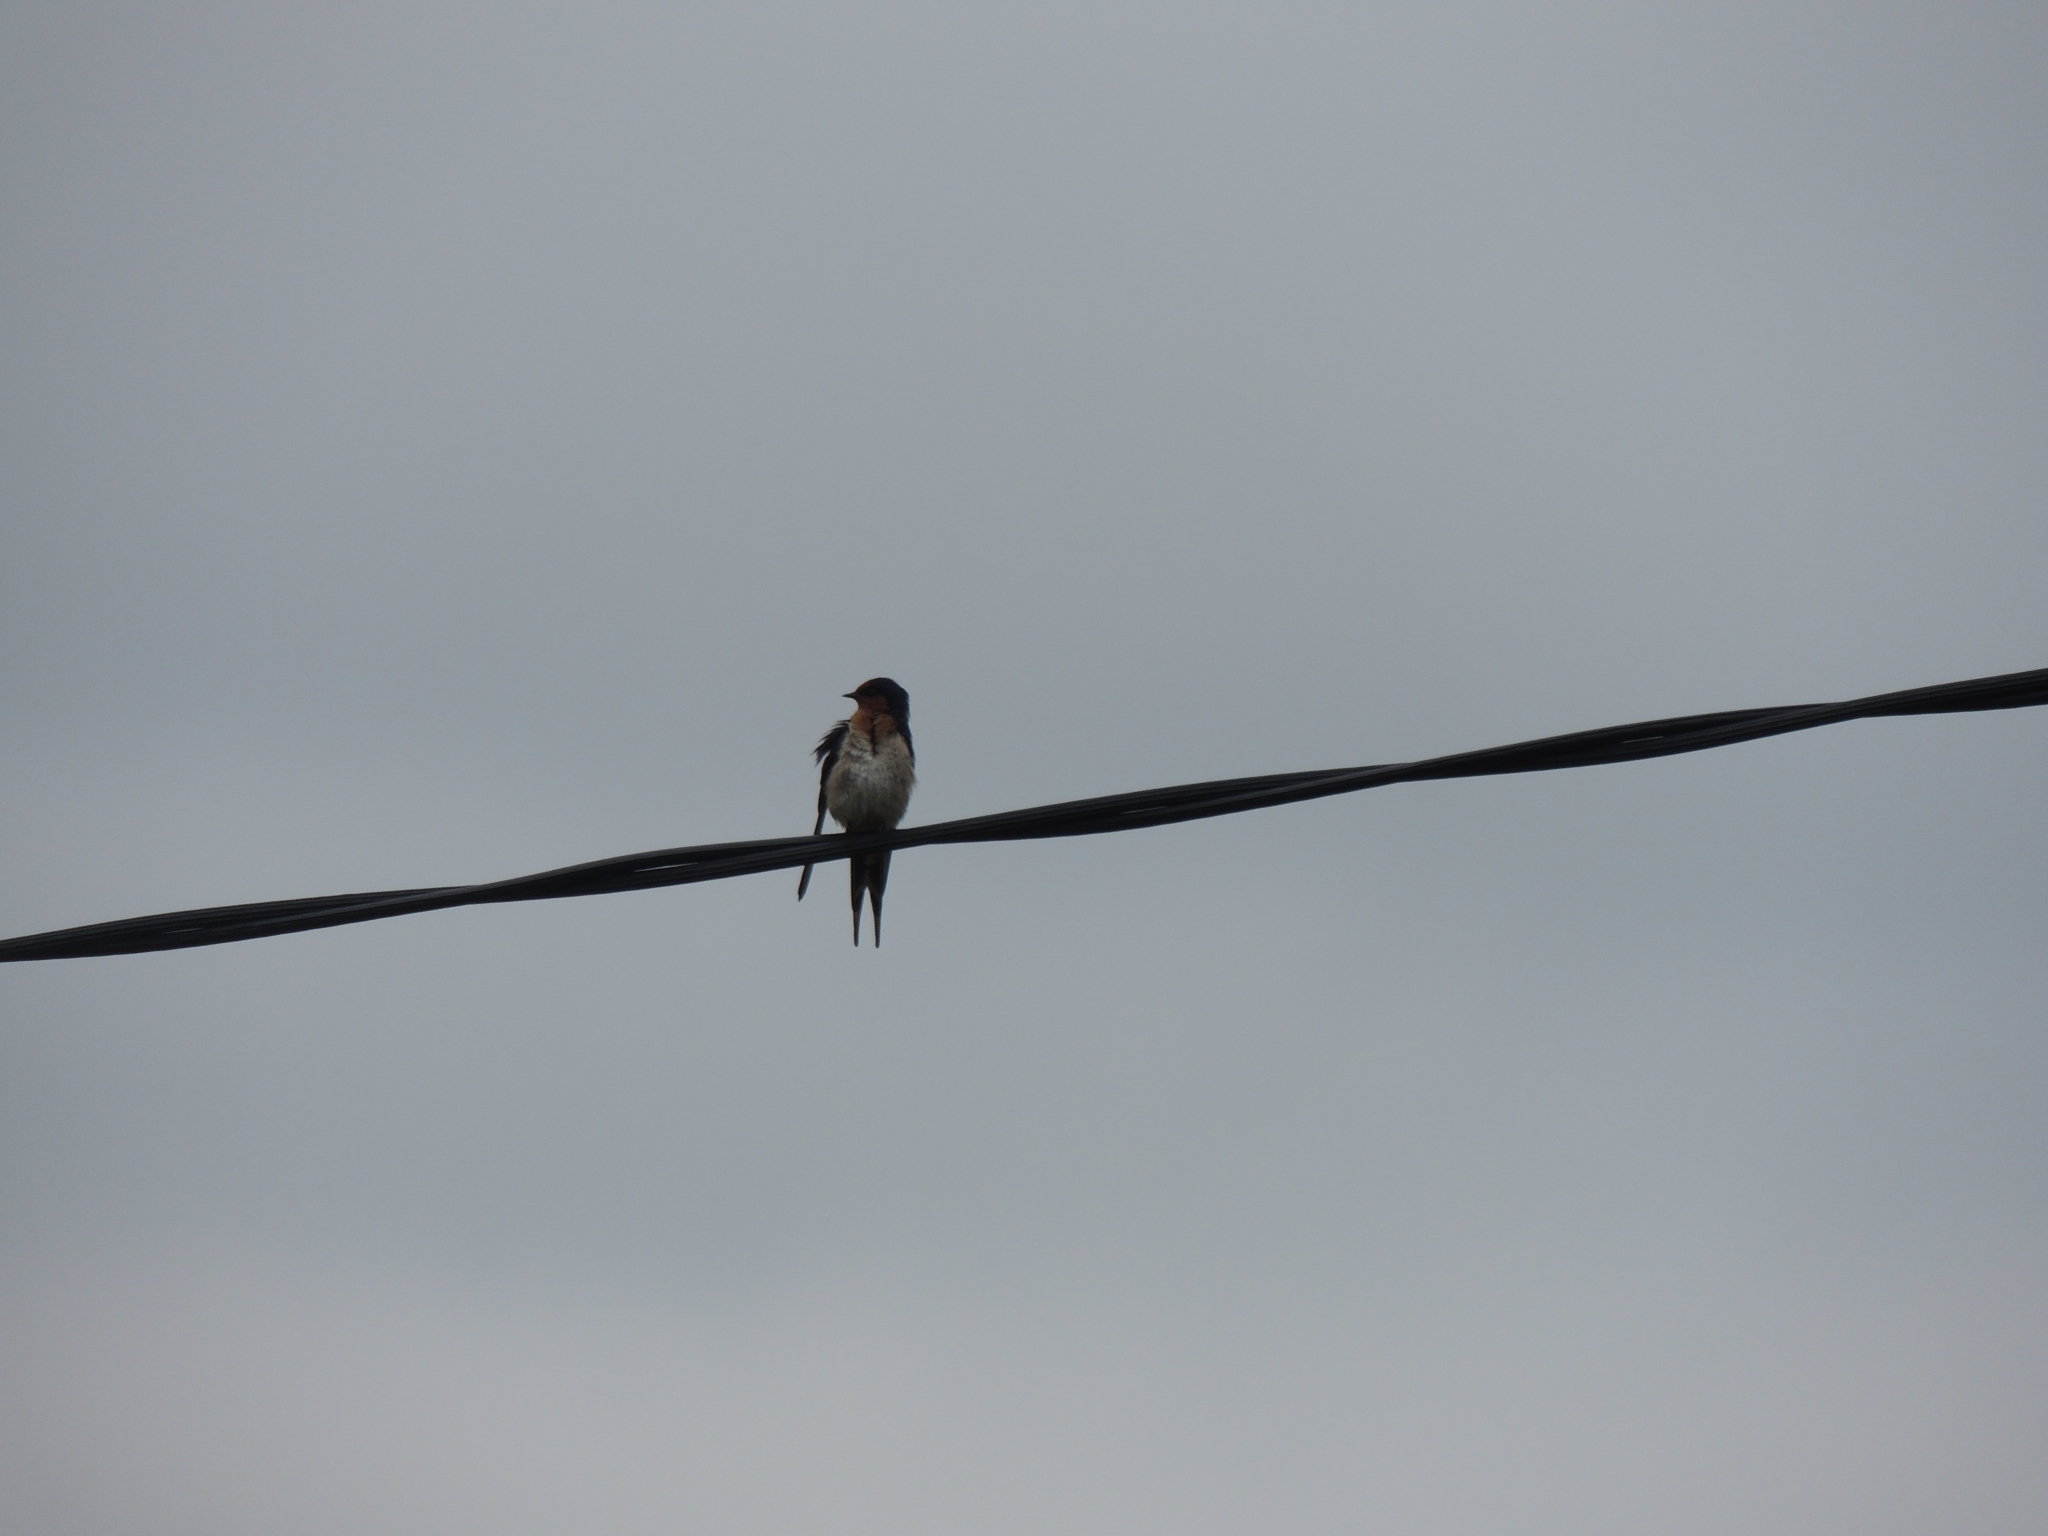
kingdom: Animalia
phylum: Chordata
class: Aves
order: Passeriformes
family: Hirundinidae
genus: Hirundo
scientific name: Hirundo neoxena
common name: Welcome swallow
